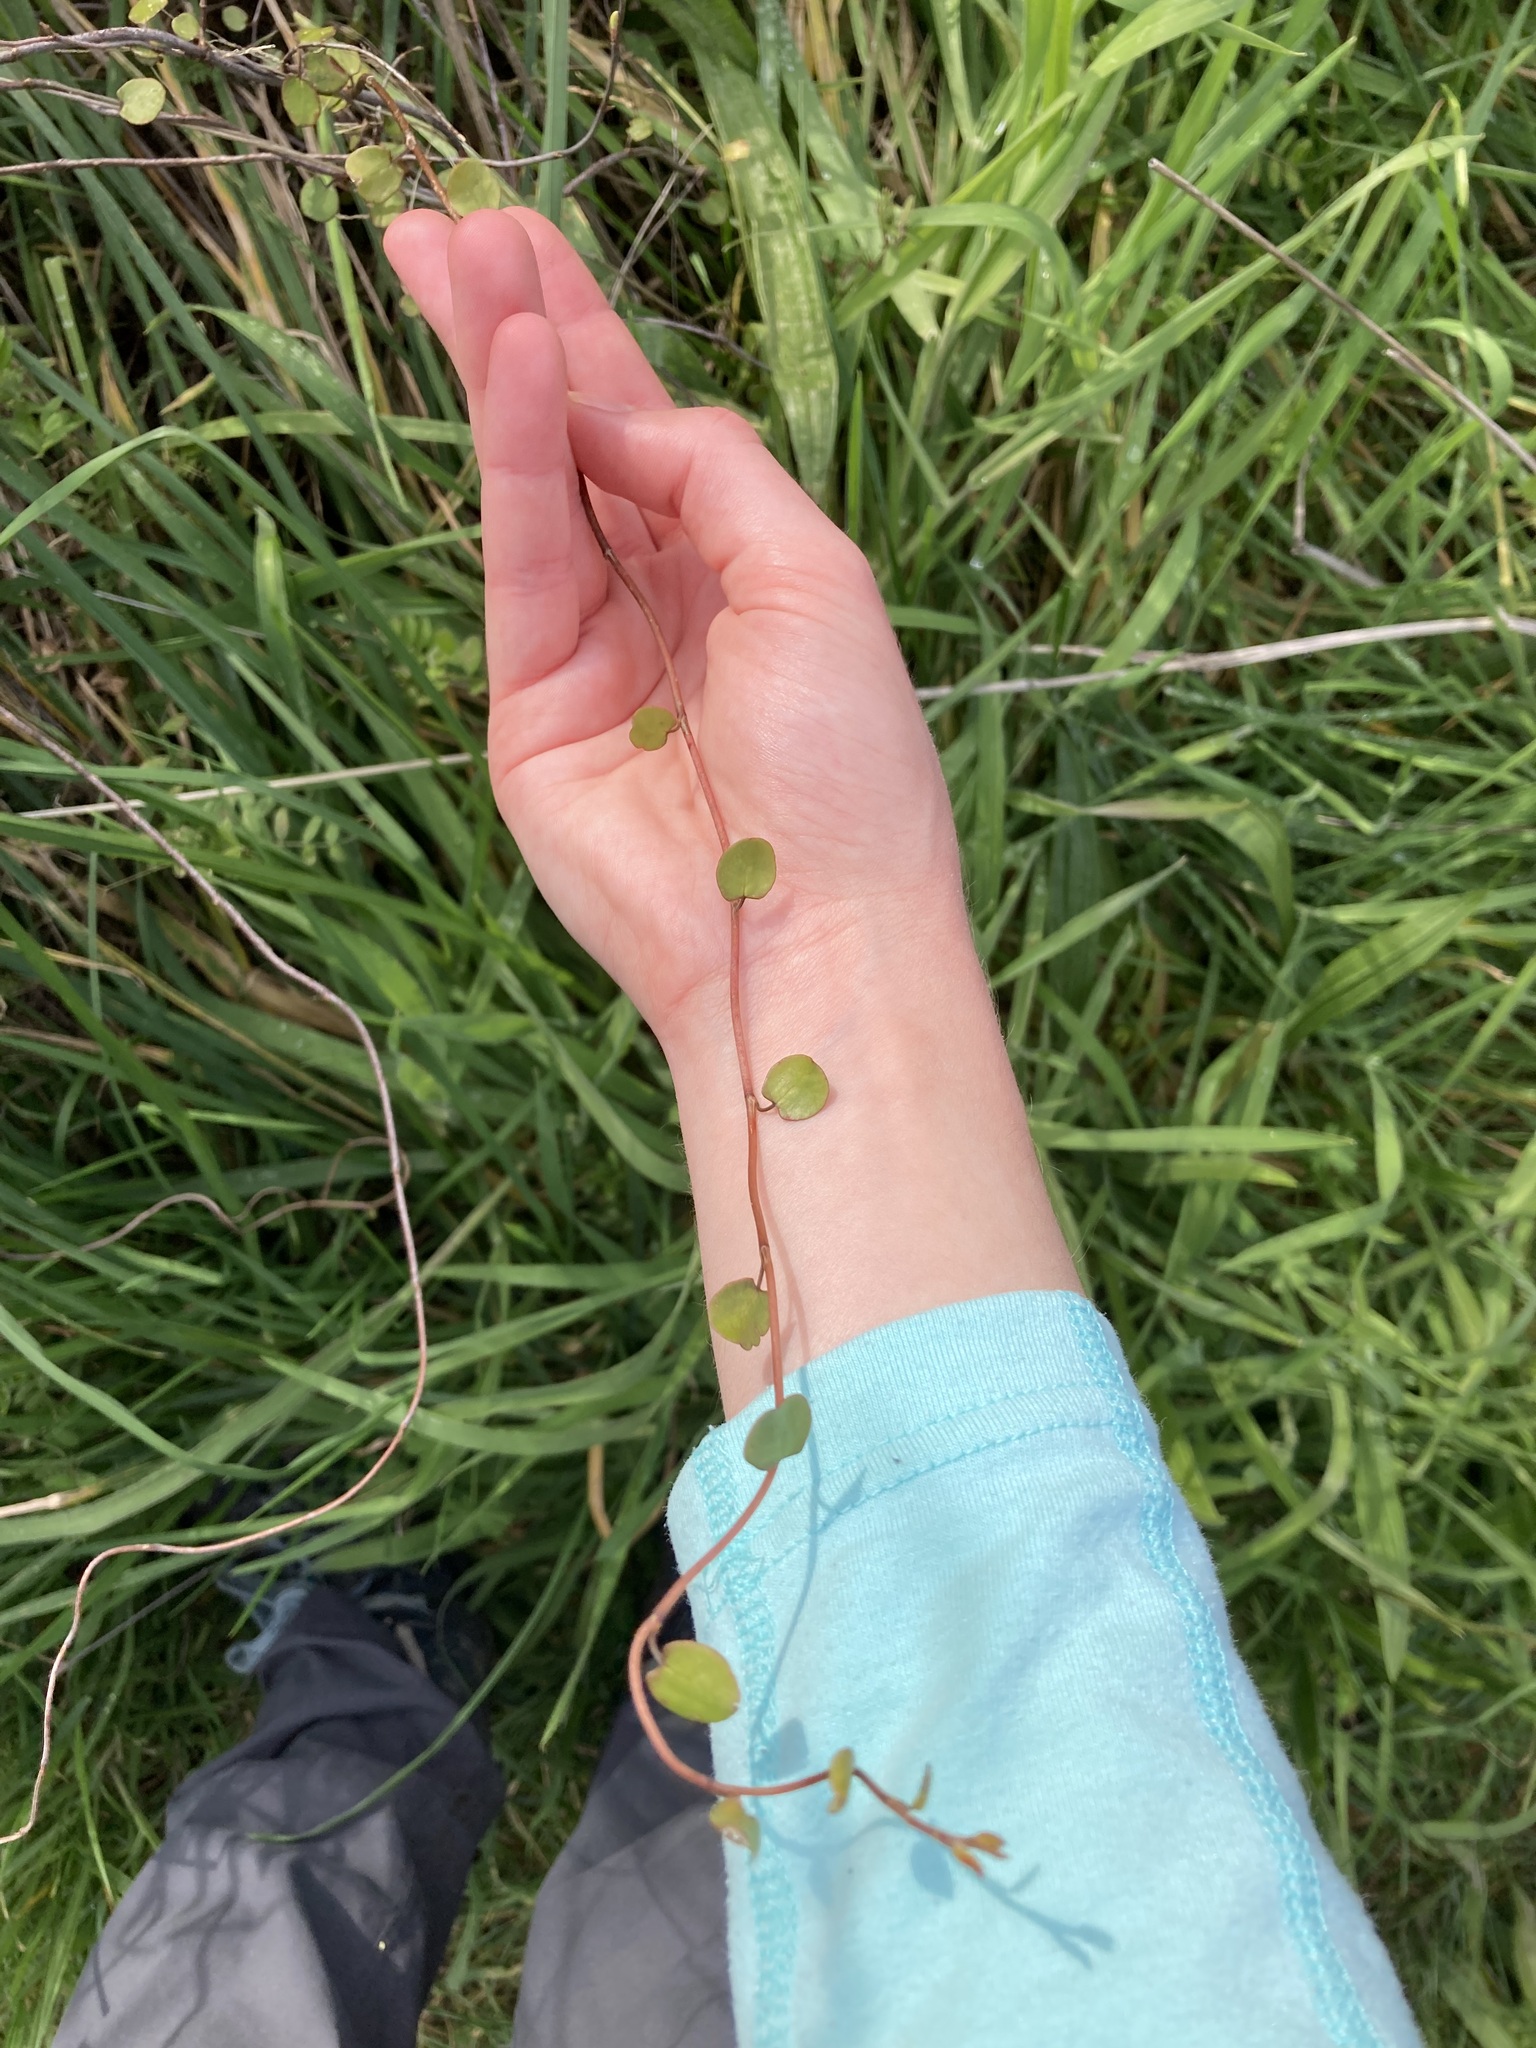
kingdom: Plantae
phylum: Tracheophyta
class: Magnoliopsida
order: Caryophyllales
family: Polygonaceae
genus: Muehlenbeckia
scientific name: Muehlenbeckia complexa
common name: Wireplant
